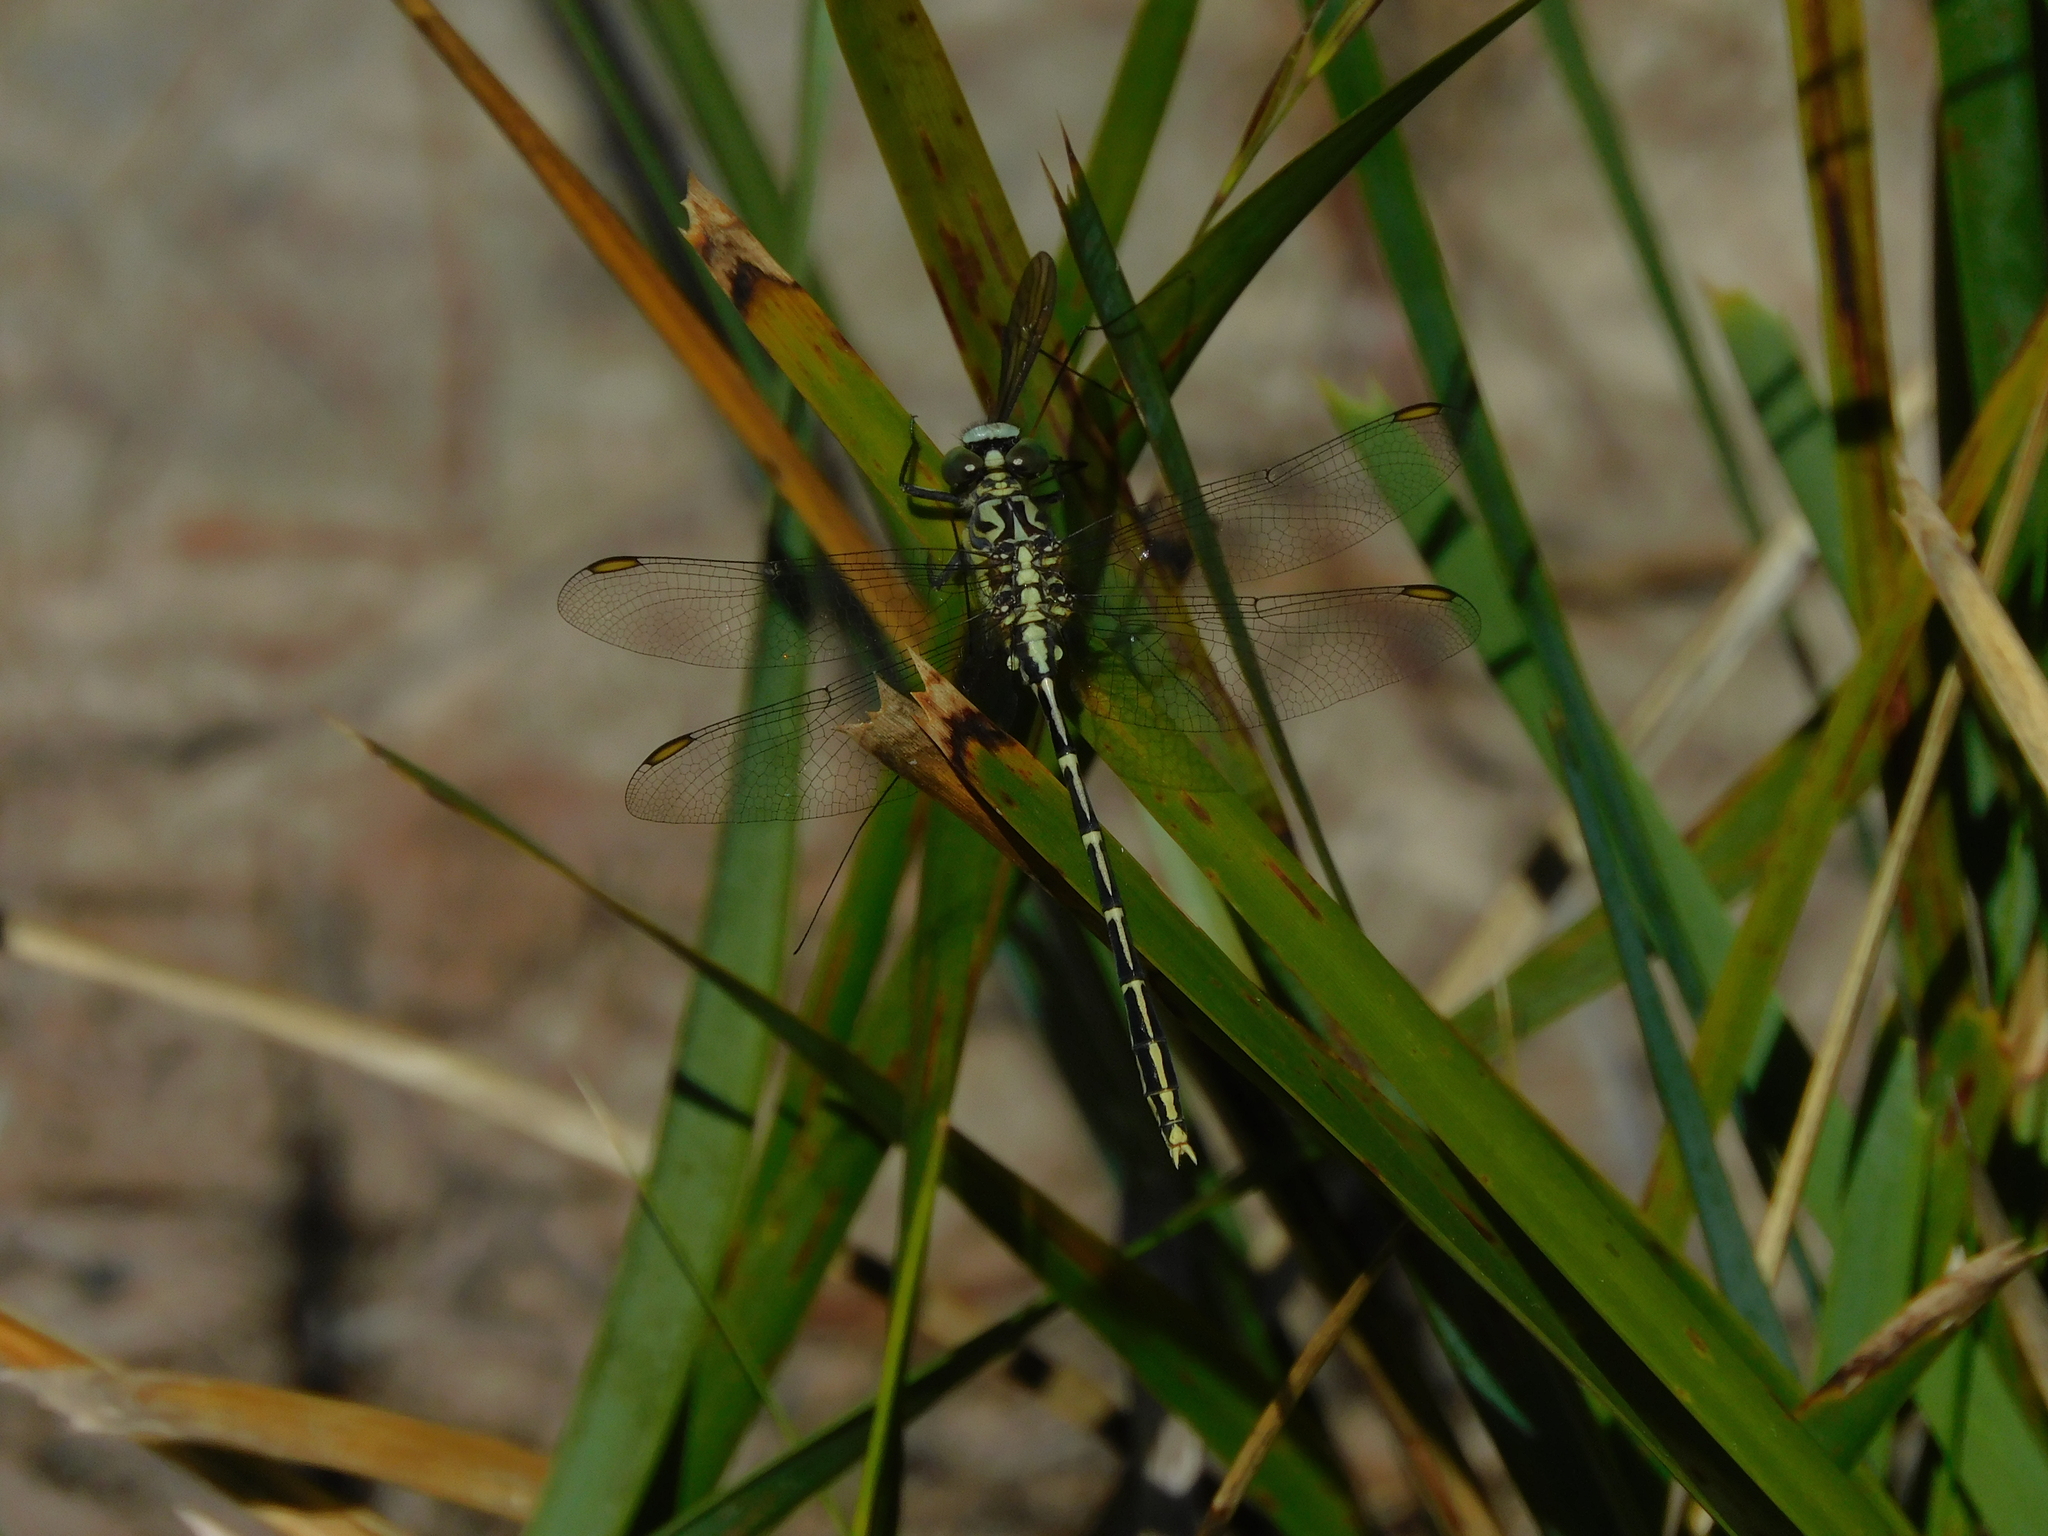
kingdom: Animalia
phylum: Arthropoda
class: Insecta
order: Odonata
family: Gomphidae
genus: Austrogomphus
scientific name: Austrogomphus guerini
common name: Yellow-striped hunter
